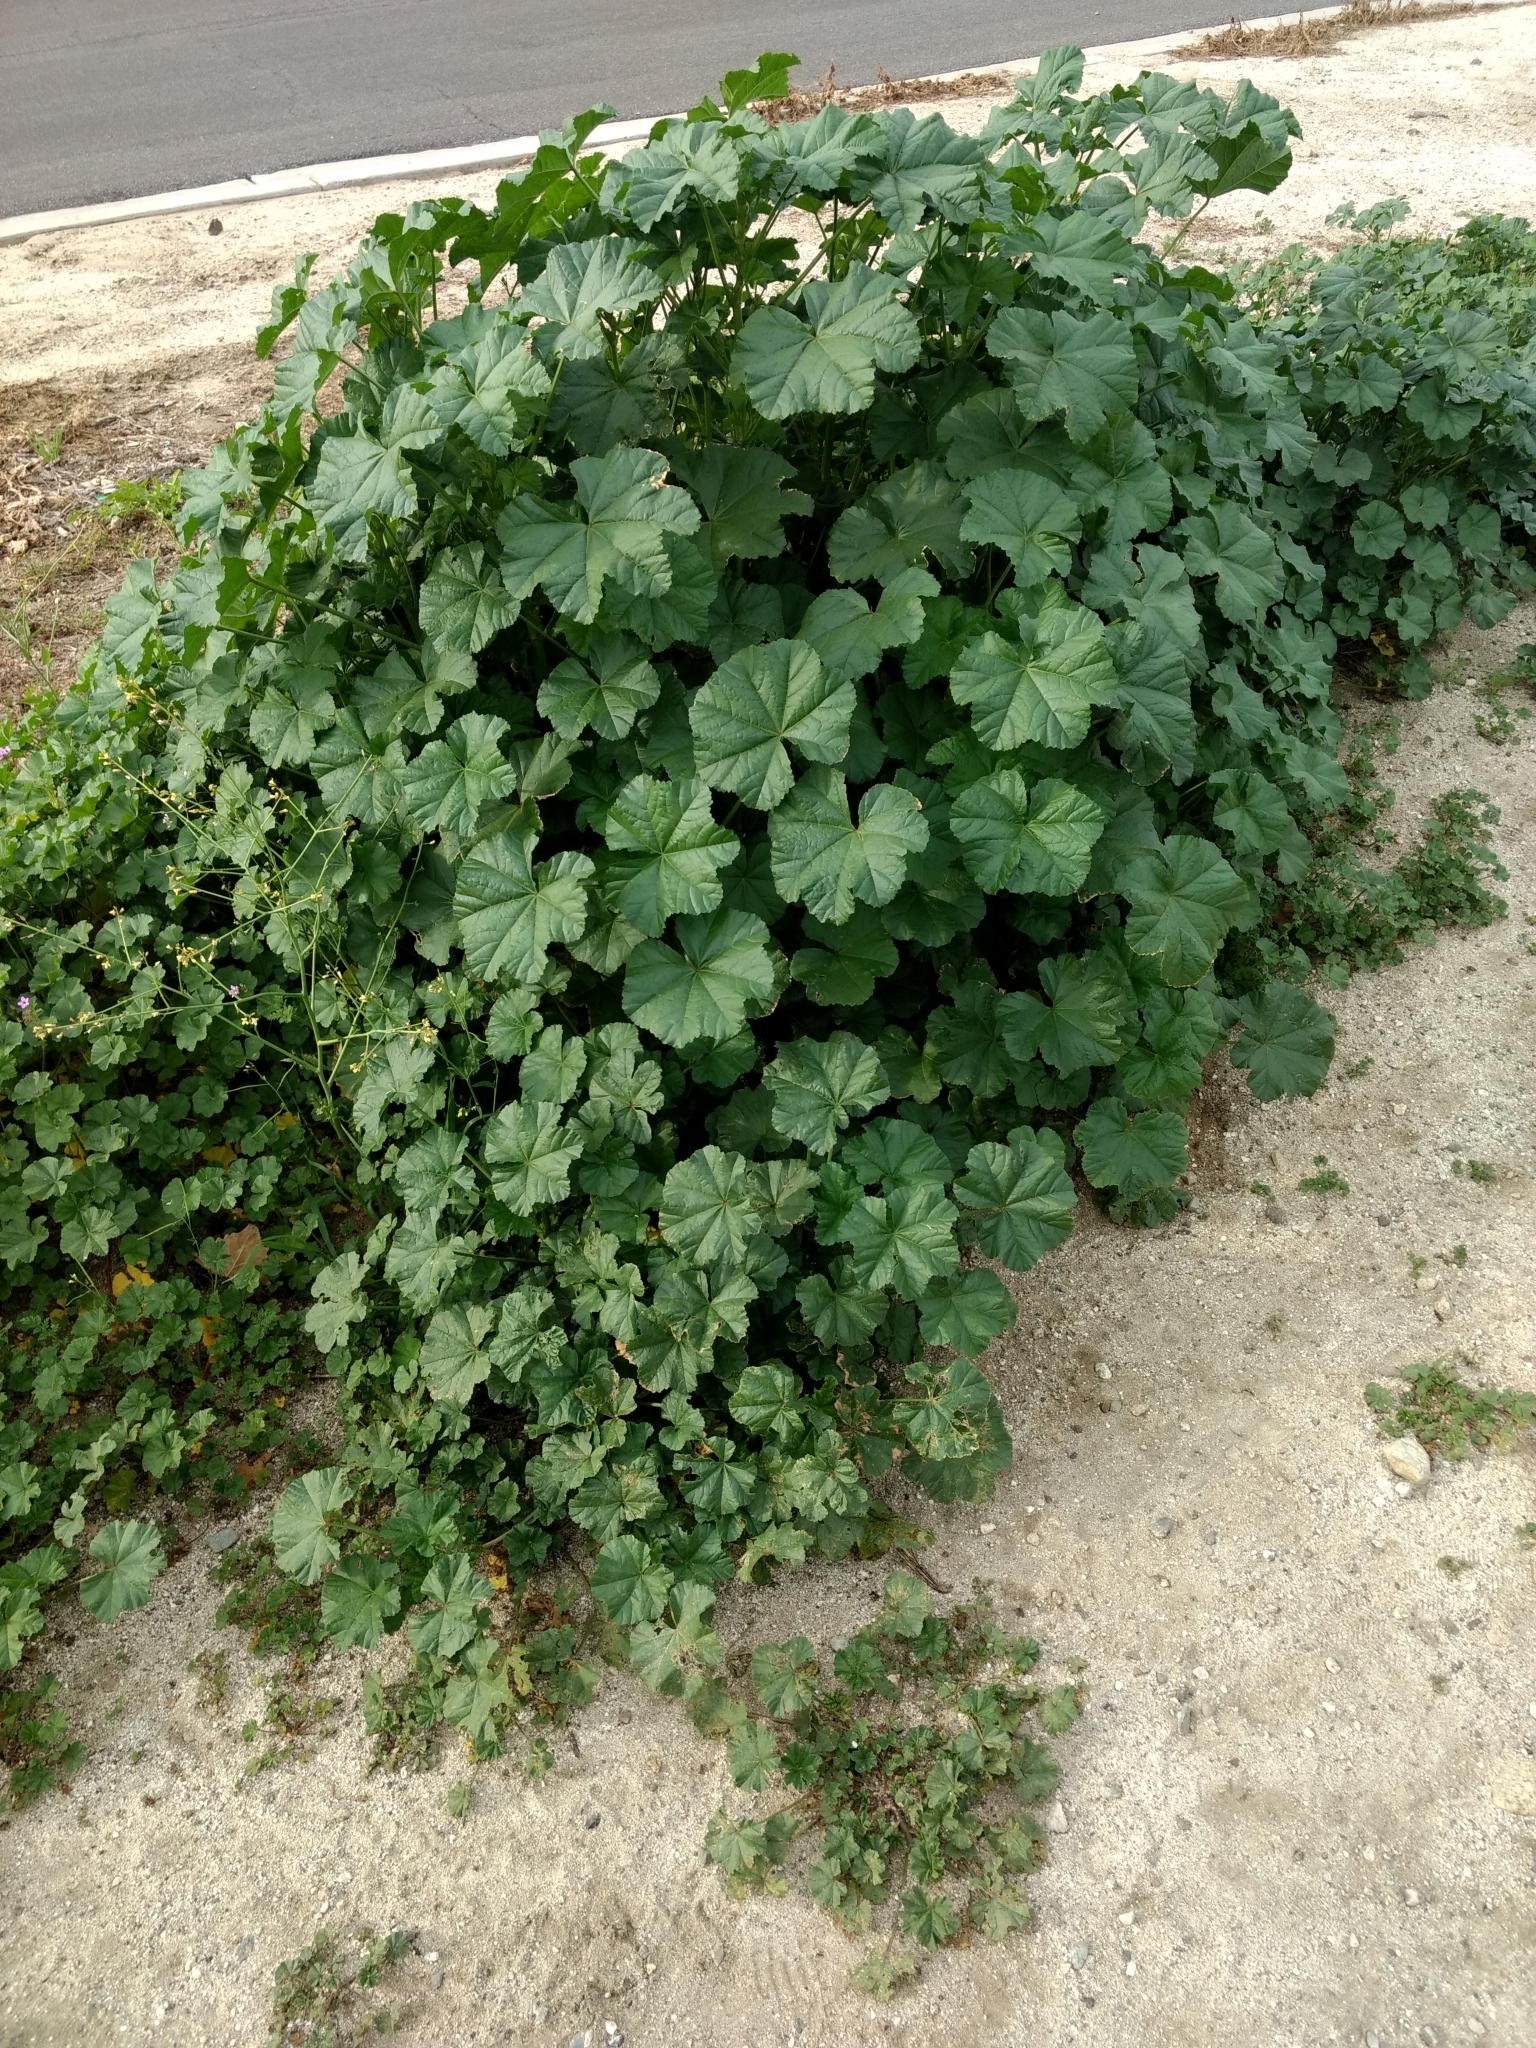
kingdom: Plantae
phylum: Tracheophyta
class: Magnoliopsida
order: Malvales
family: Malvaceae
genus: Malva
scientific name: Malva parviflora
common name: Least mallow
